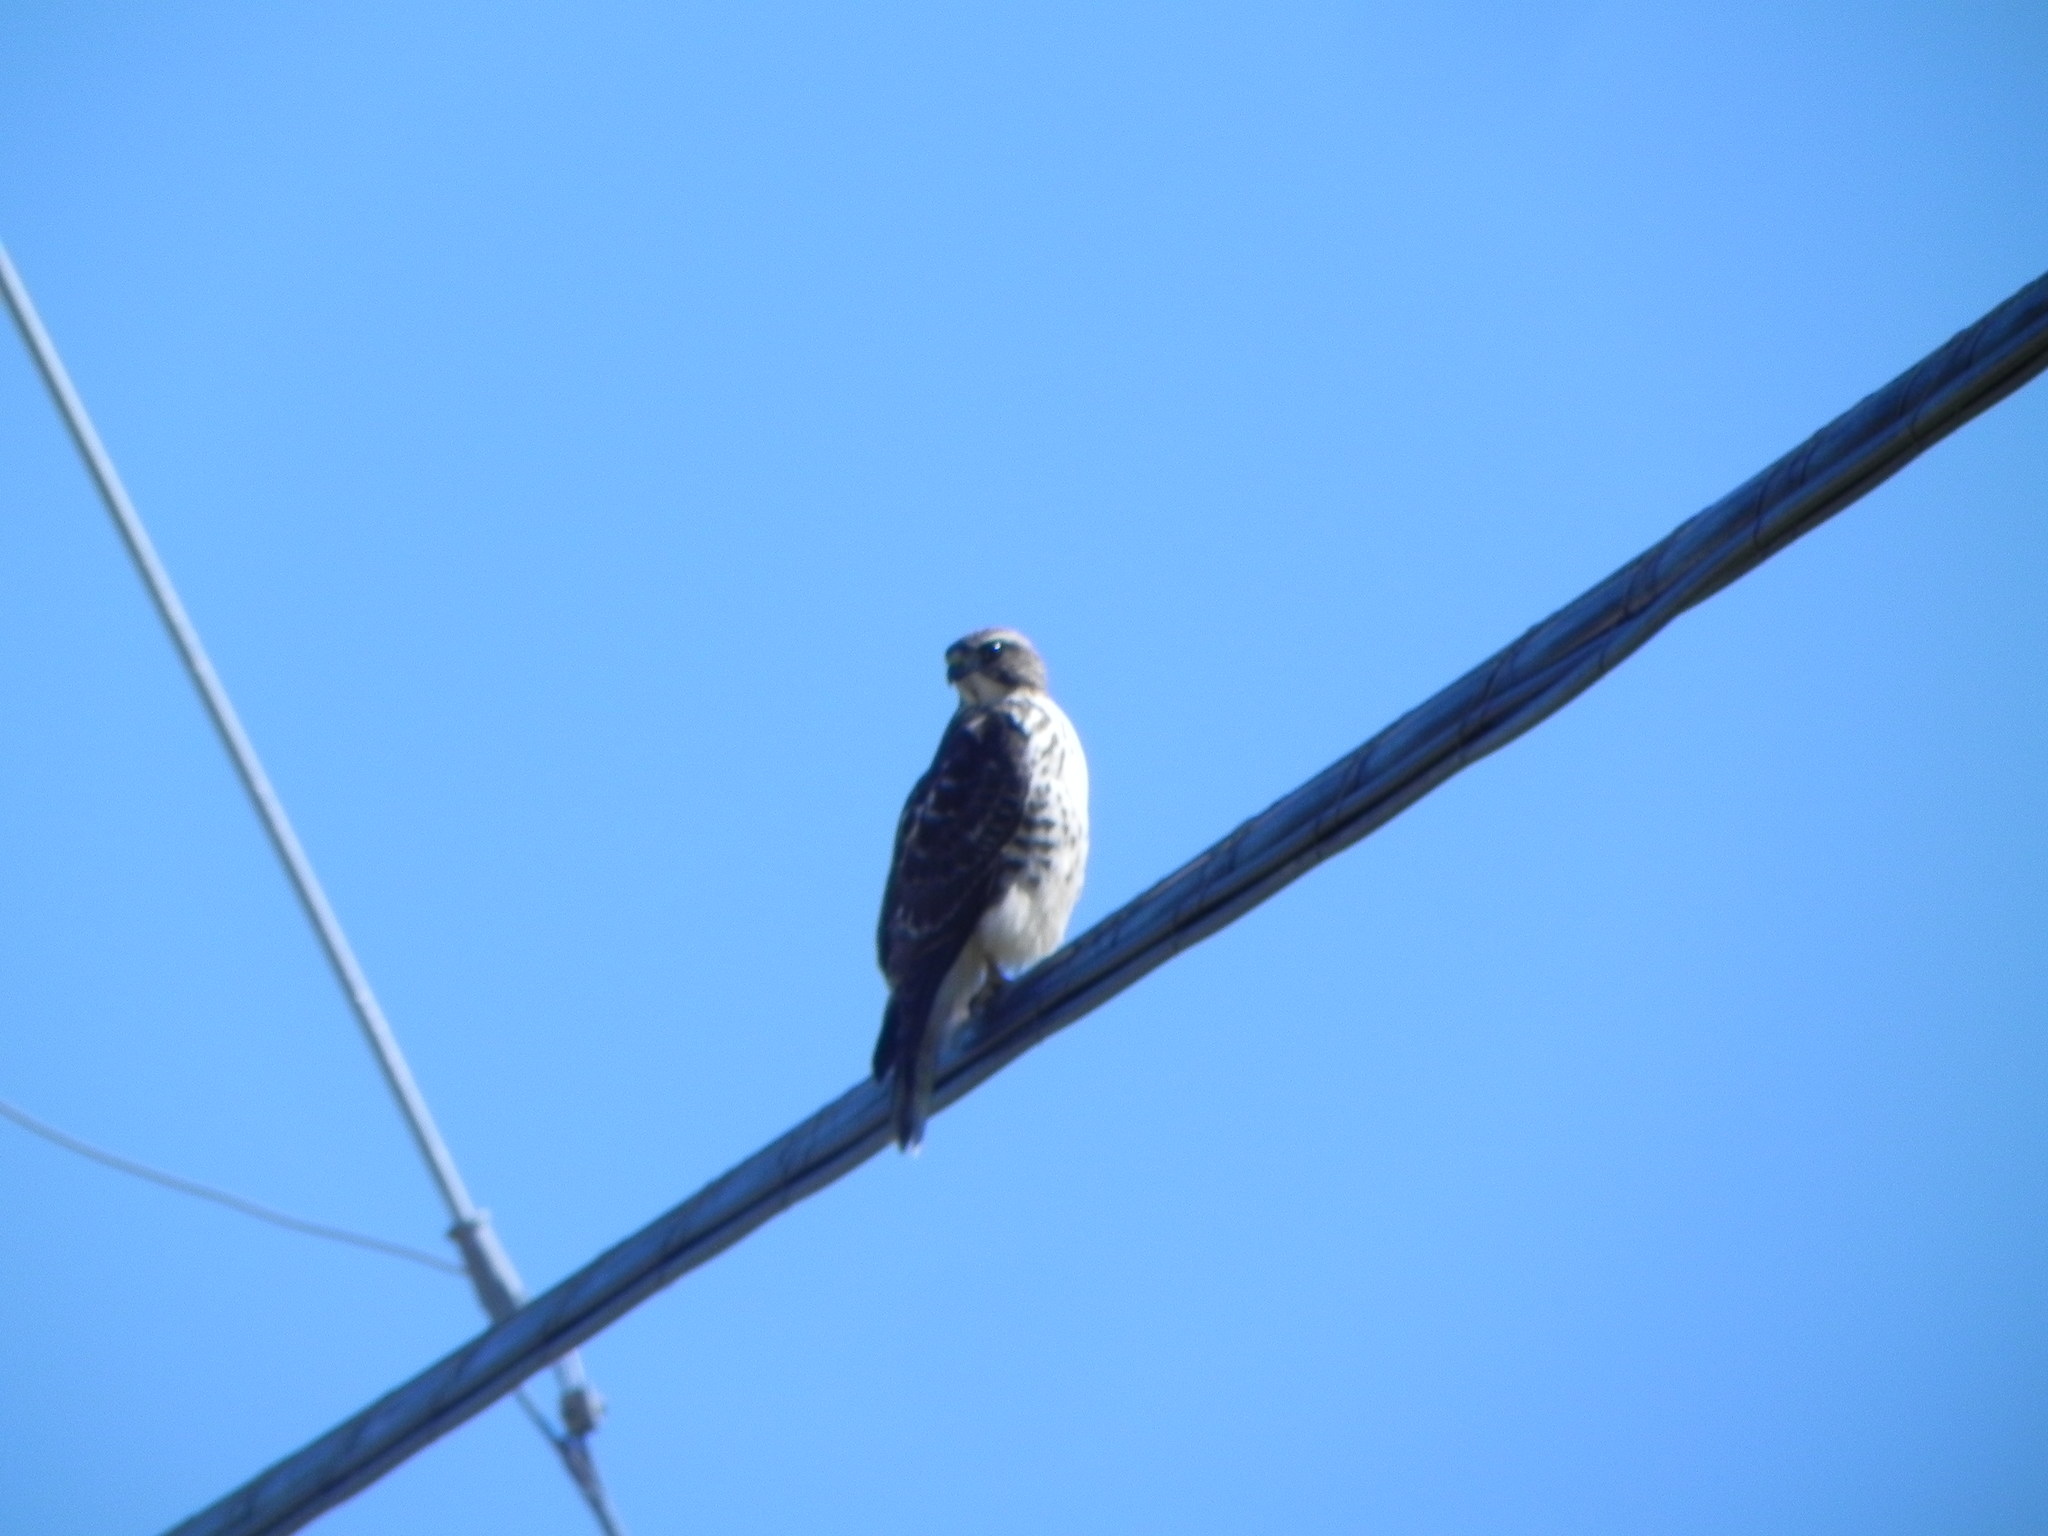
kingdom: Animalia
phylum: Chordata
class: Aves
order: Accipitriformes
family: Accipitridae
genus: Buteo
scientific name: Buteo platypterus
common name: Broad-winged hawk
